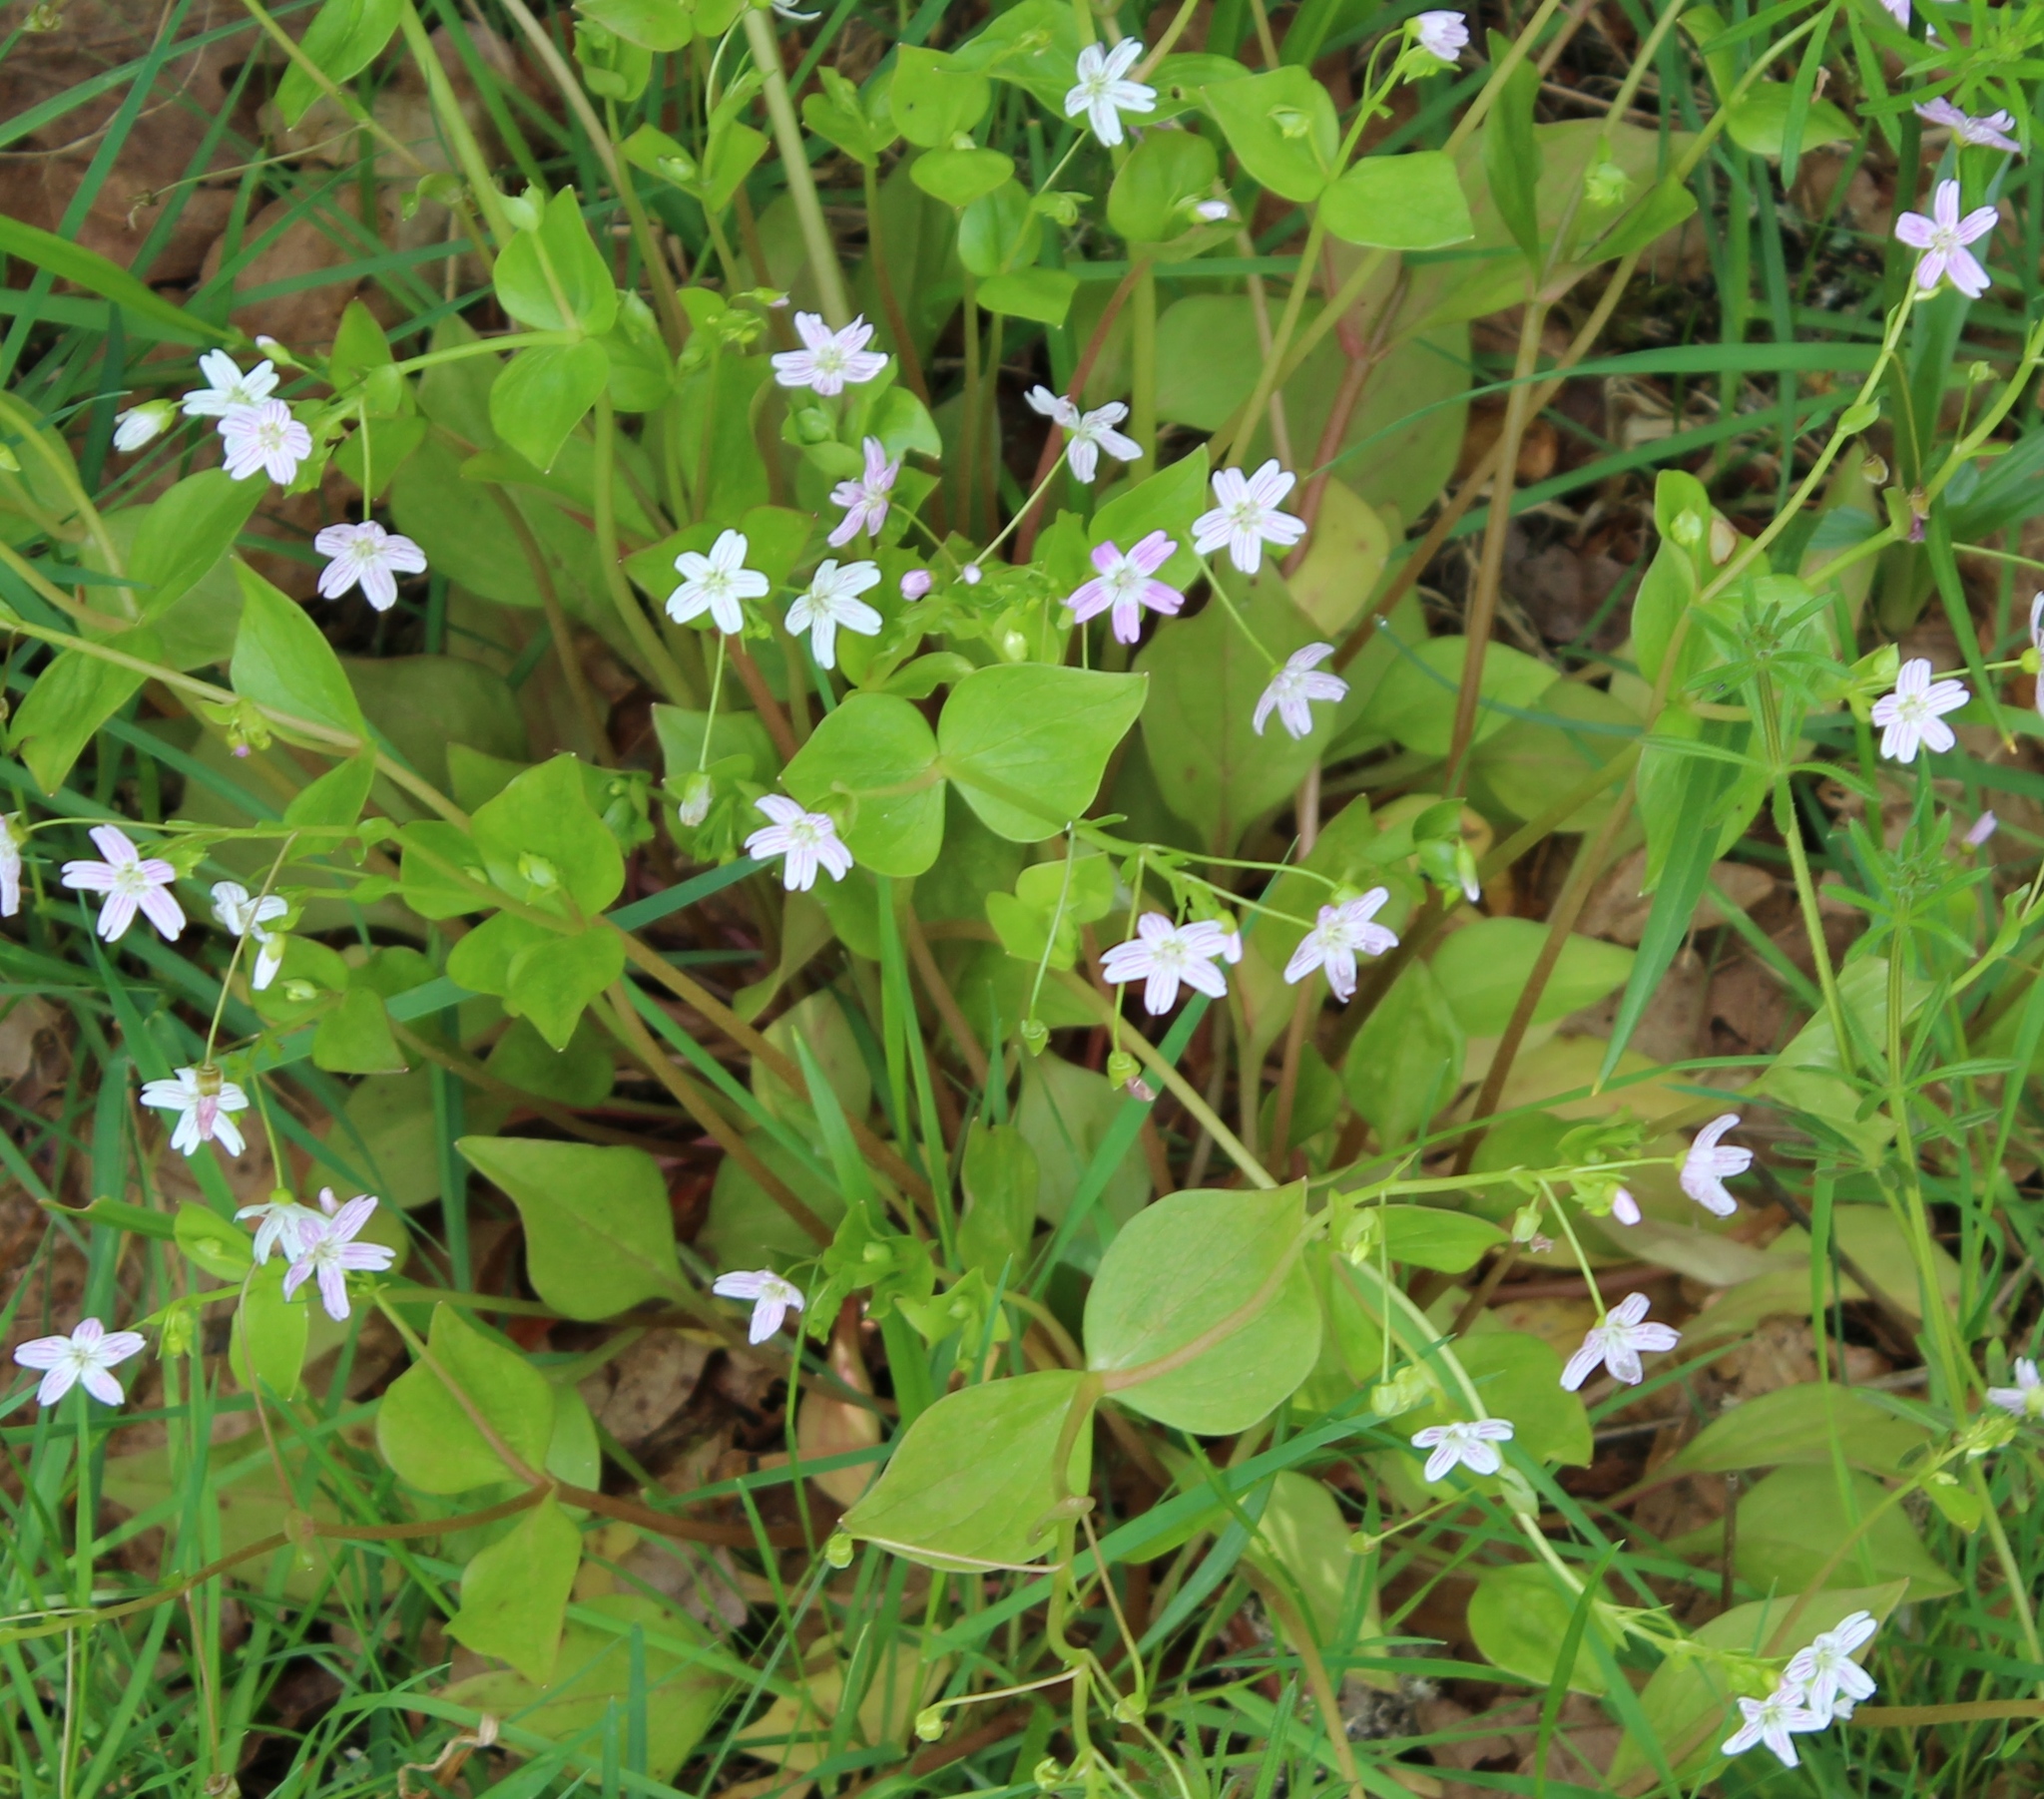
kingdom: Plantae
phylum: Tracheophyta
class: Magnoliopsida
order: Caryophyllales
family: Montiaceae
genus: Claytonia
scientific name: Claytonia sibirica
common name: Pink purslane
